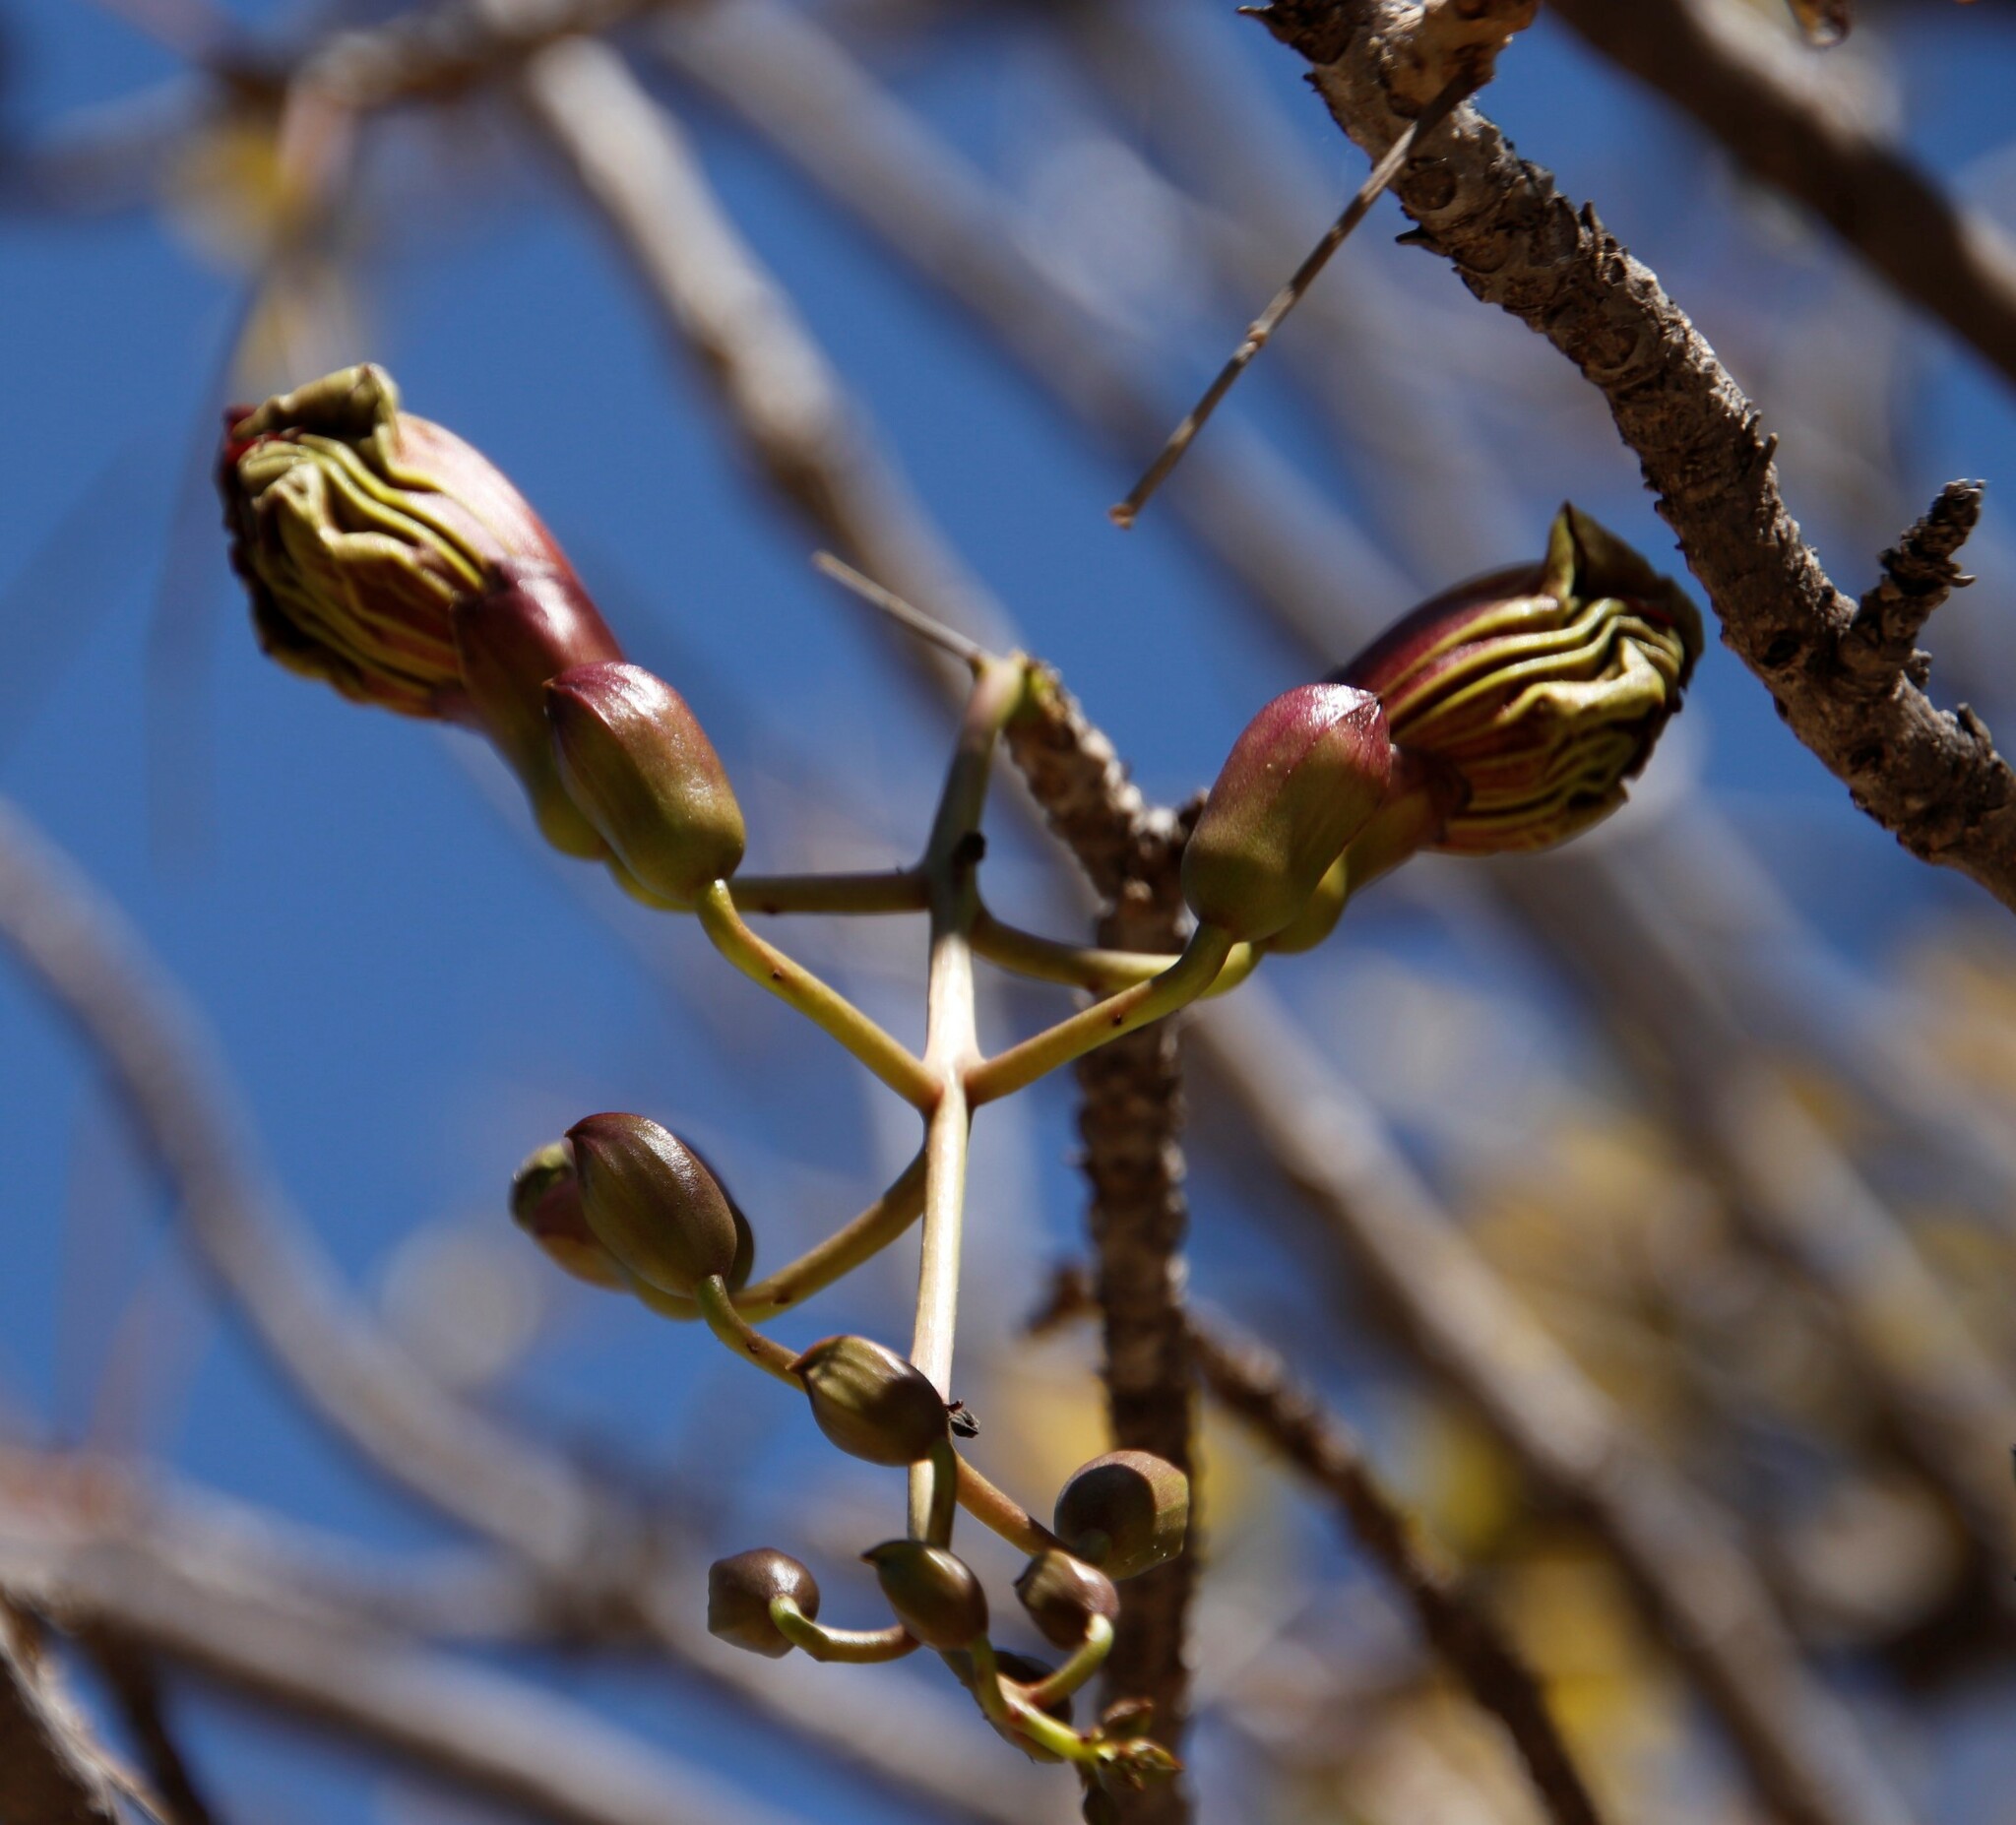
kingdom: Plantae
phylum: Tracheophyta
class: Magnoliopsida
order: Lamiales
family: Bignoniaceae
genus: Kigelia
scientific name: Kigelia africana
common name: Sausage tree
